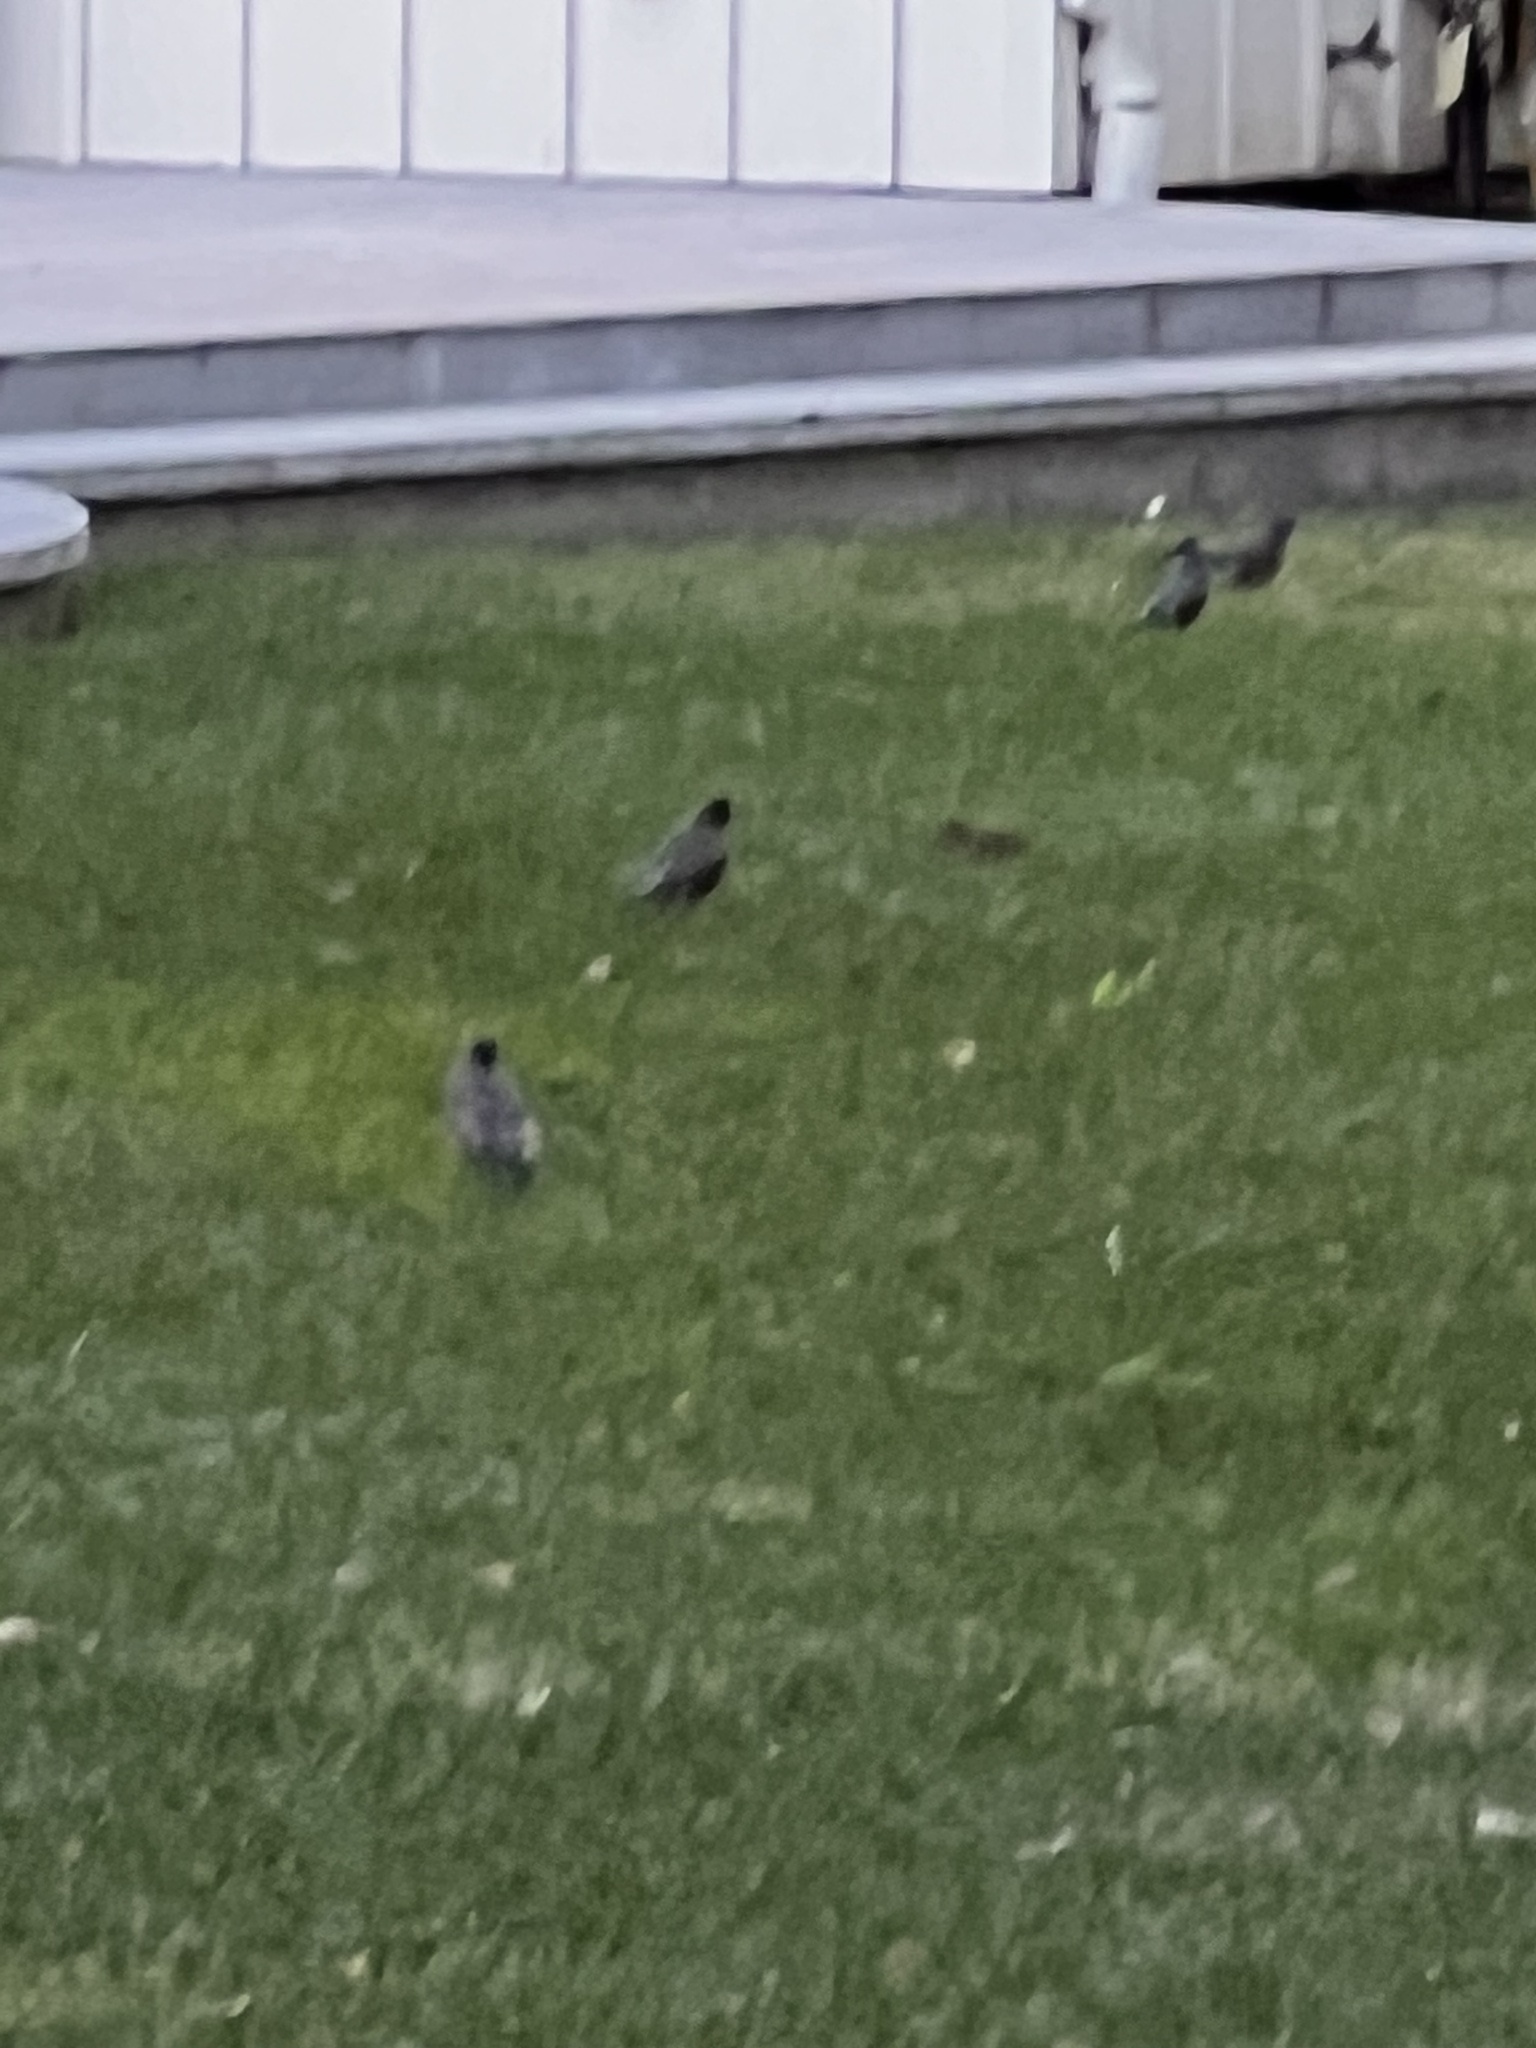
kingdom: Animalia
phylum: Chordata
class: Aves
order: Passeriformes
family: Turdidae
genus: Turdus
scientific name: Turdus migratorius
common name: American robin
